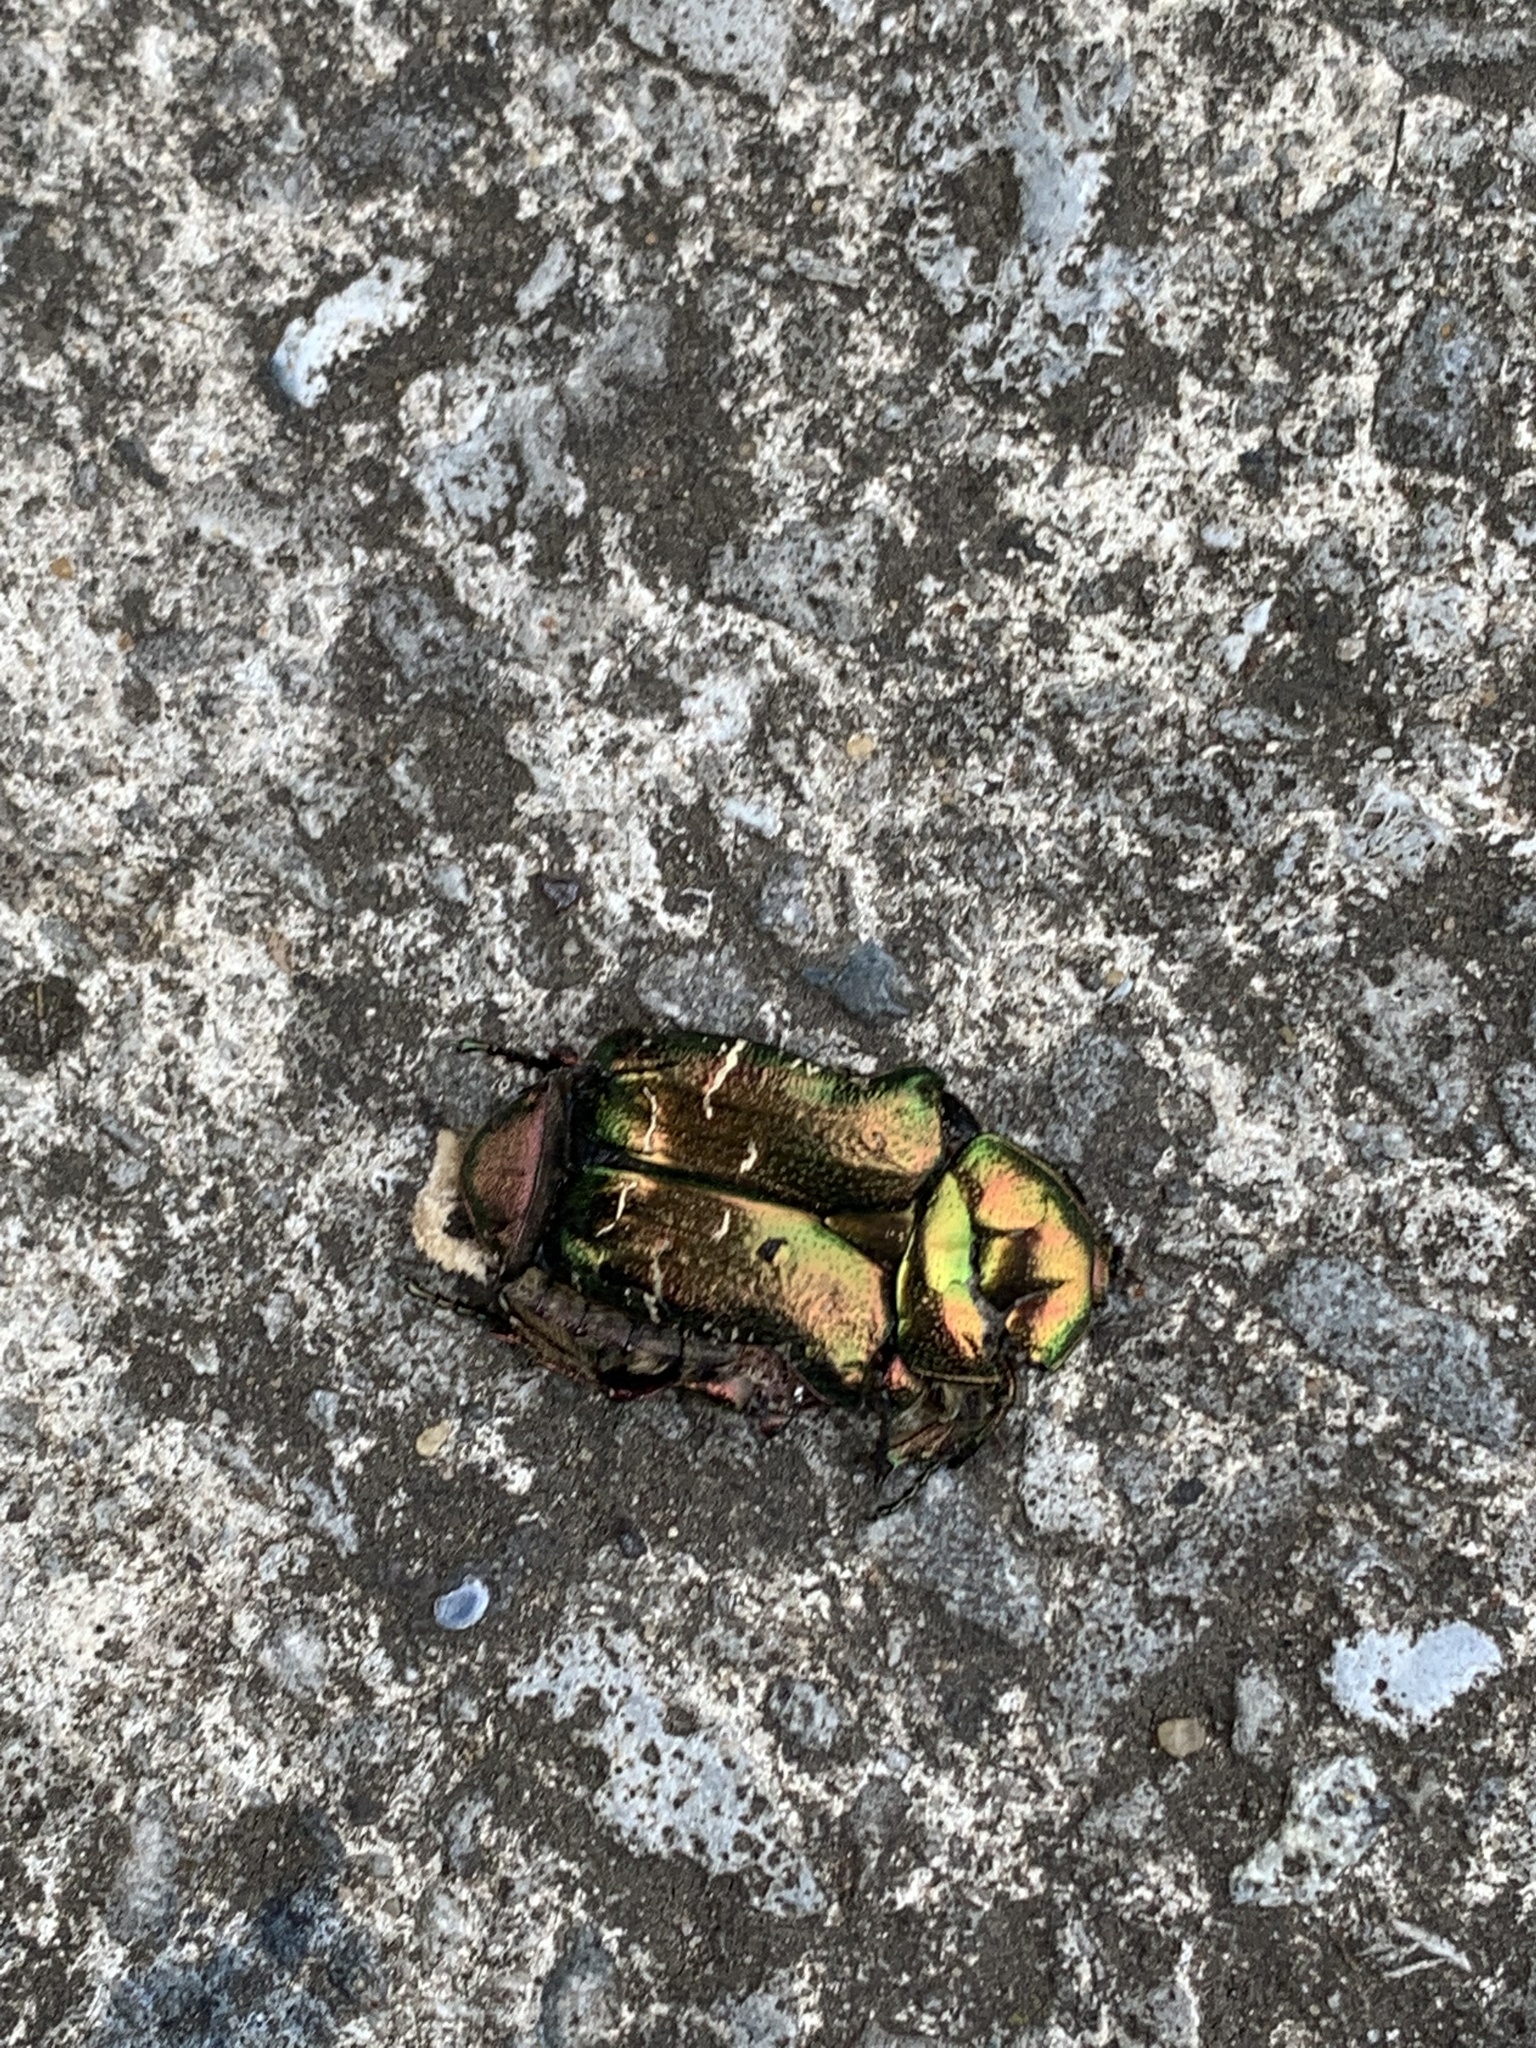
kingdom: Animalia
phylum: Arthropoda
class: Insecta
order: Coleoptera
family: Scarabaeidae
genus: Cetonia
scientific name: Cetonia aurata
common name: Rose chafer
